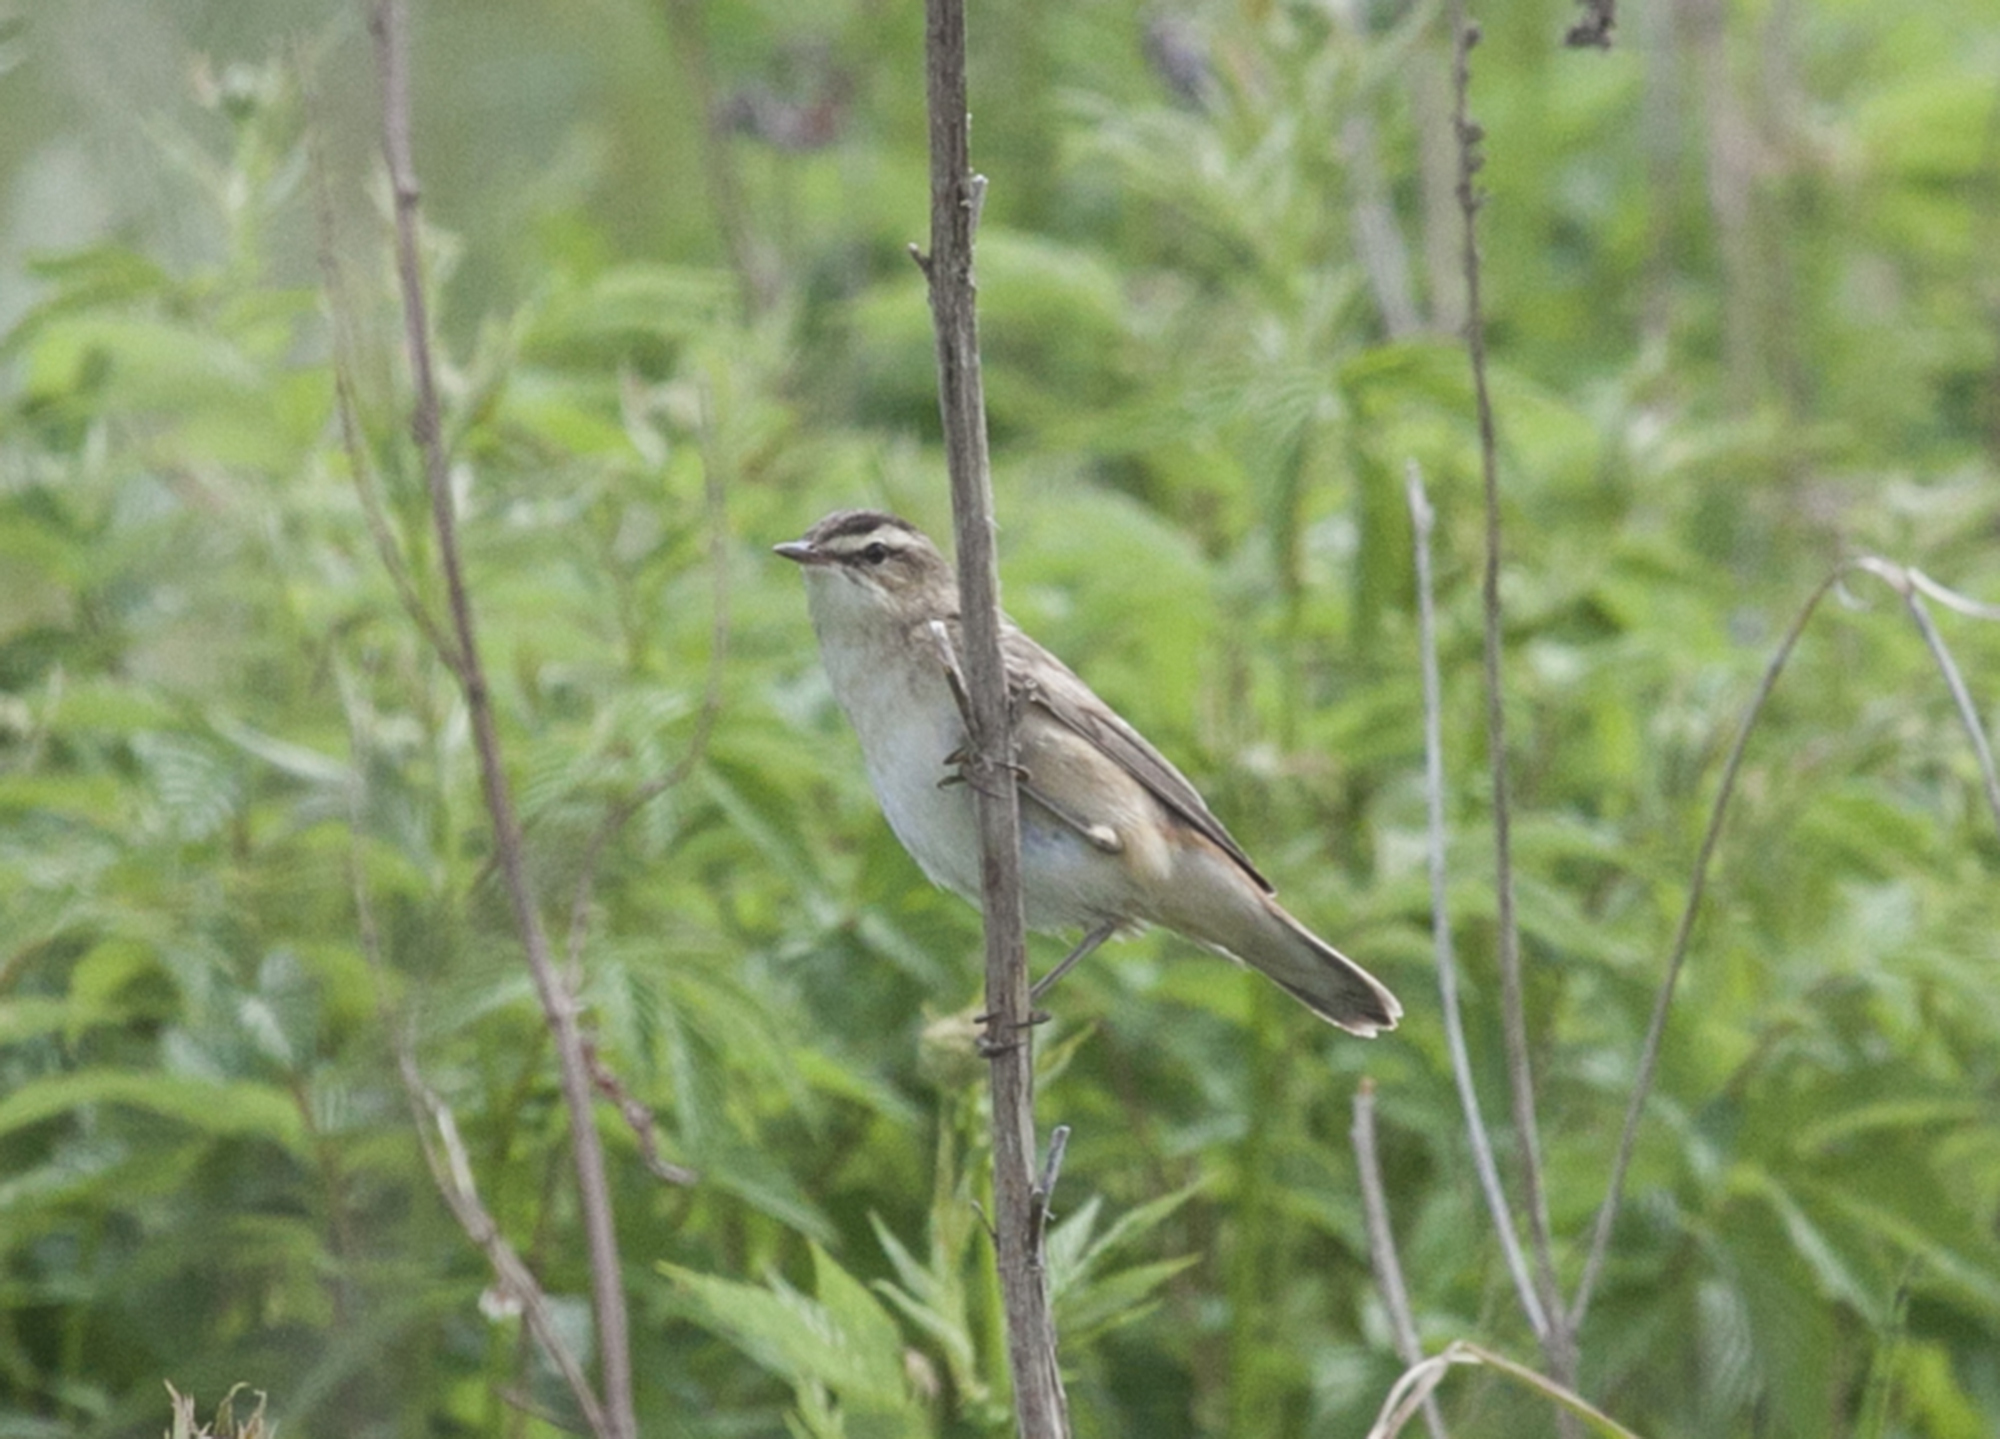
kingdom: Animalia
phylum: Chordata
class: Aves
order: Passeriformes
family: Acrocephalidae
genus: Acrocephalus
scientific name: Acrocephalus schoenobaenus
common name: Sedge warbler
